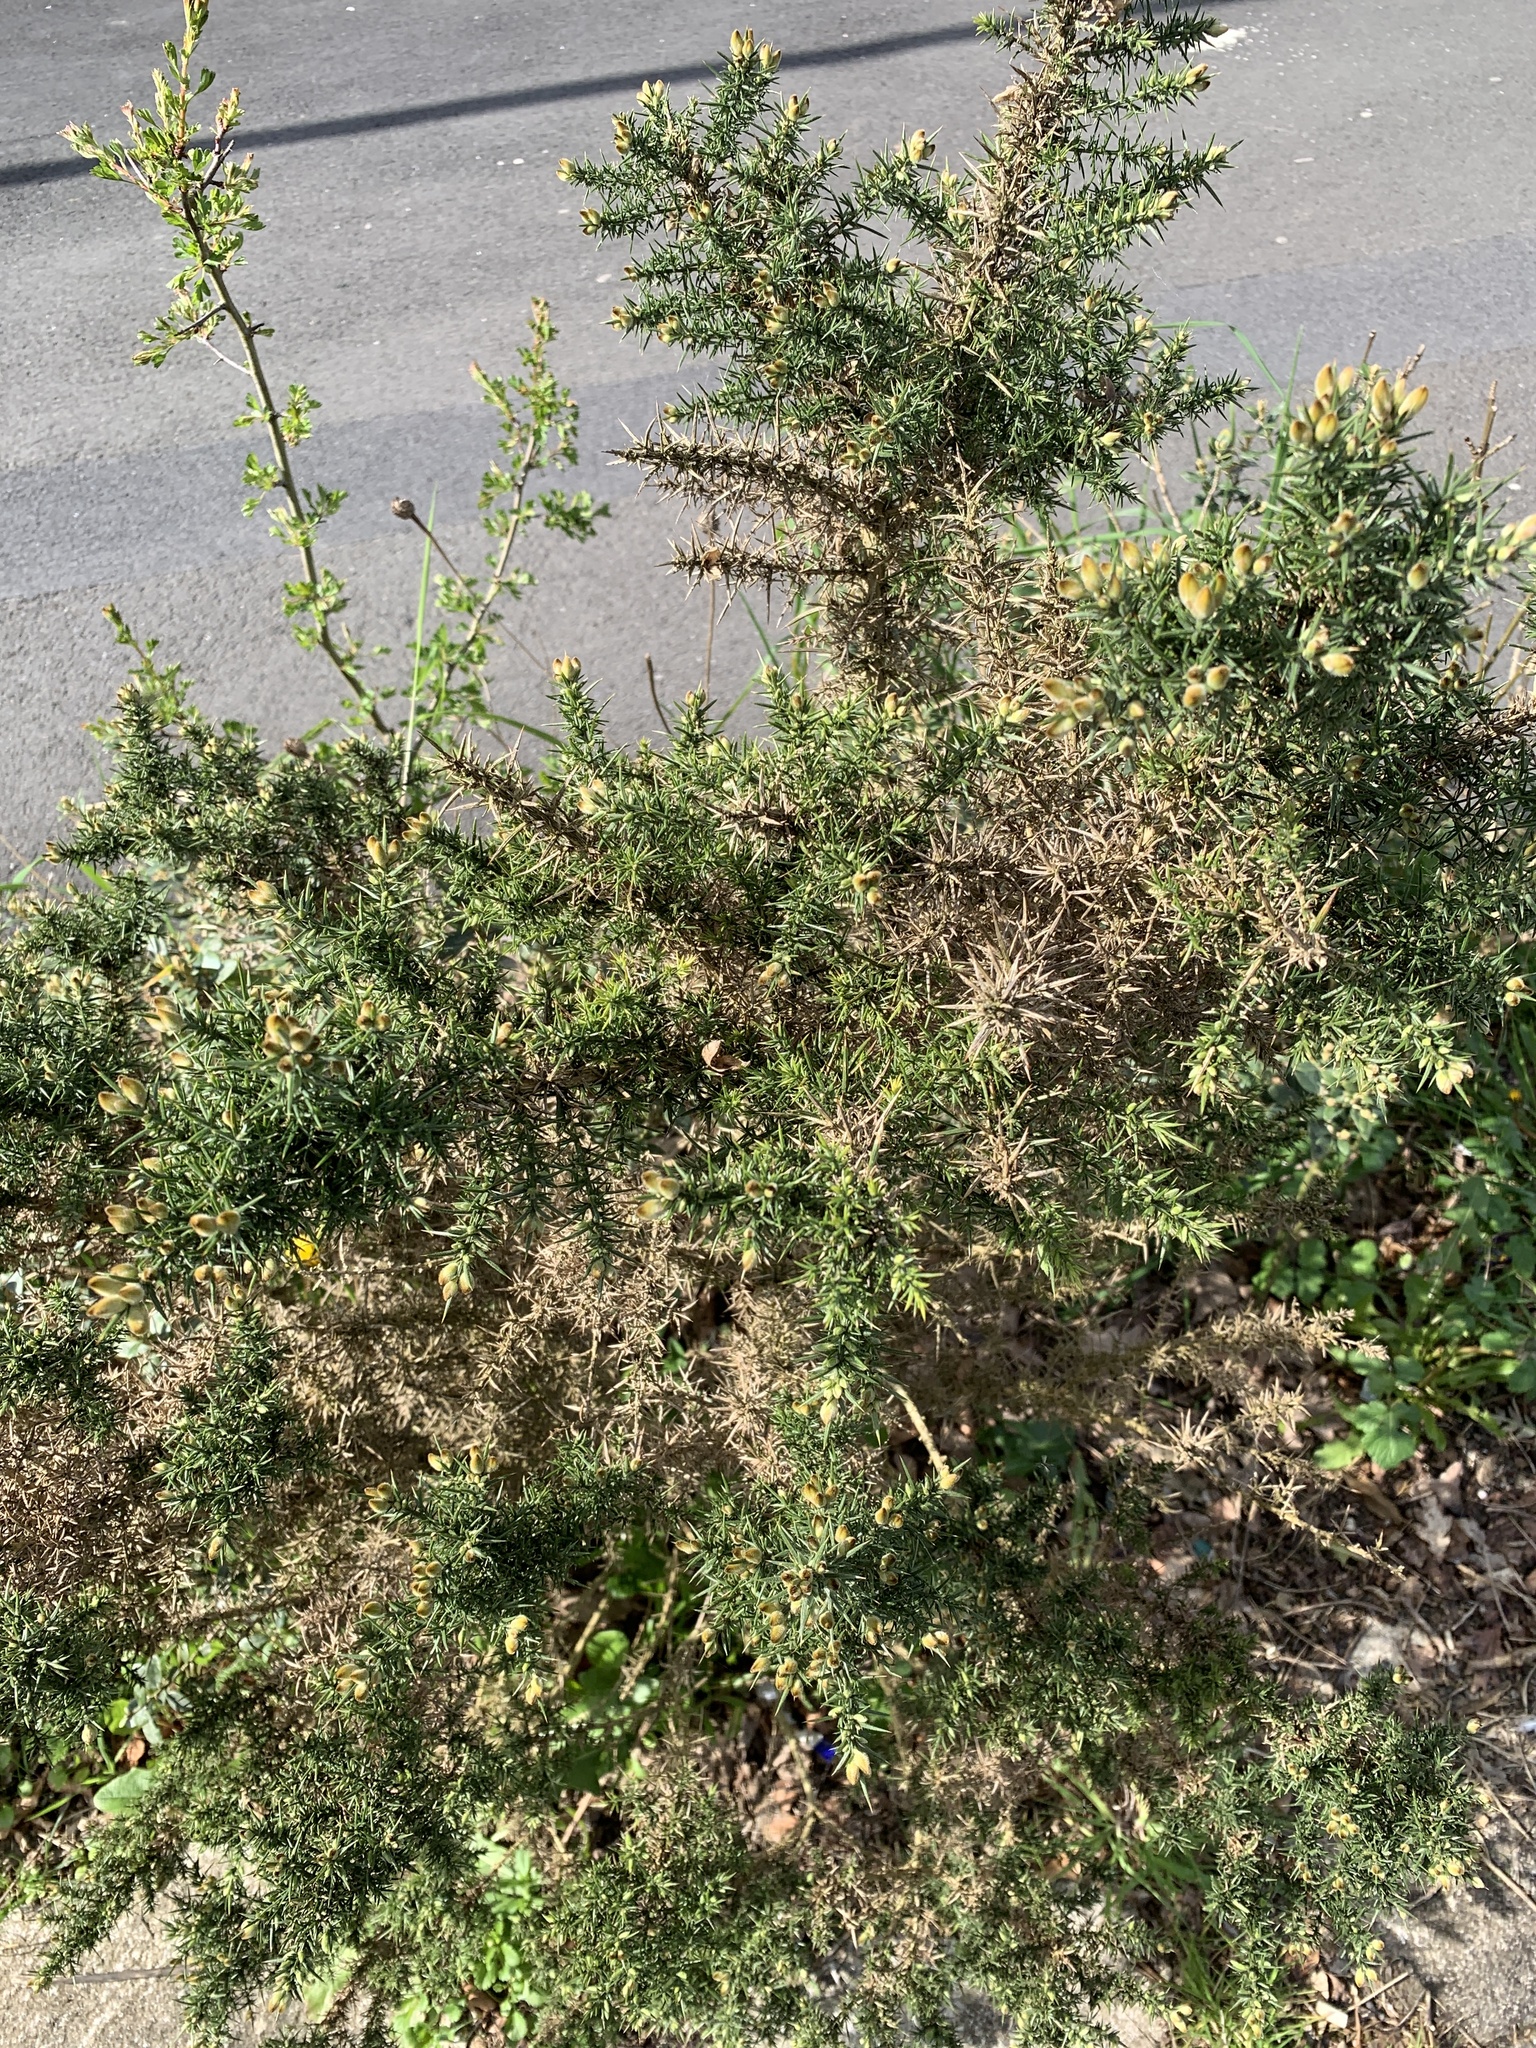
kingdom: Plantae
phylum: Tracheophyta
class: Magnoliopsida
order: Fabales
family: Fabaceae
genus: Ulex
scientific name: Ulex europaeus
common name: Common gorse
